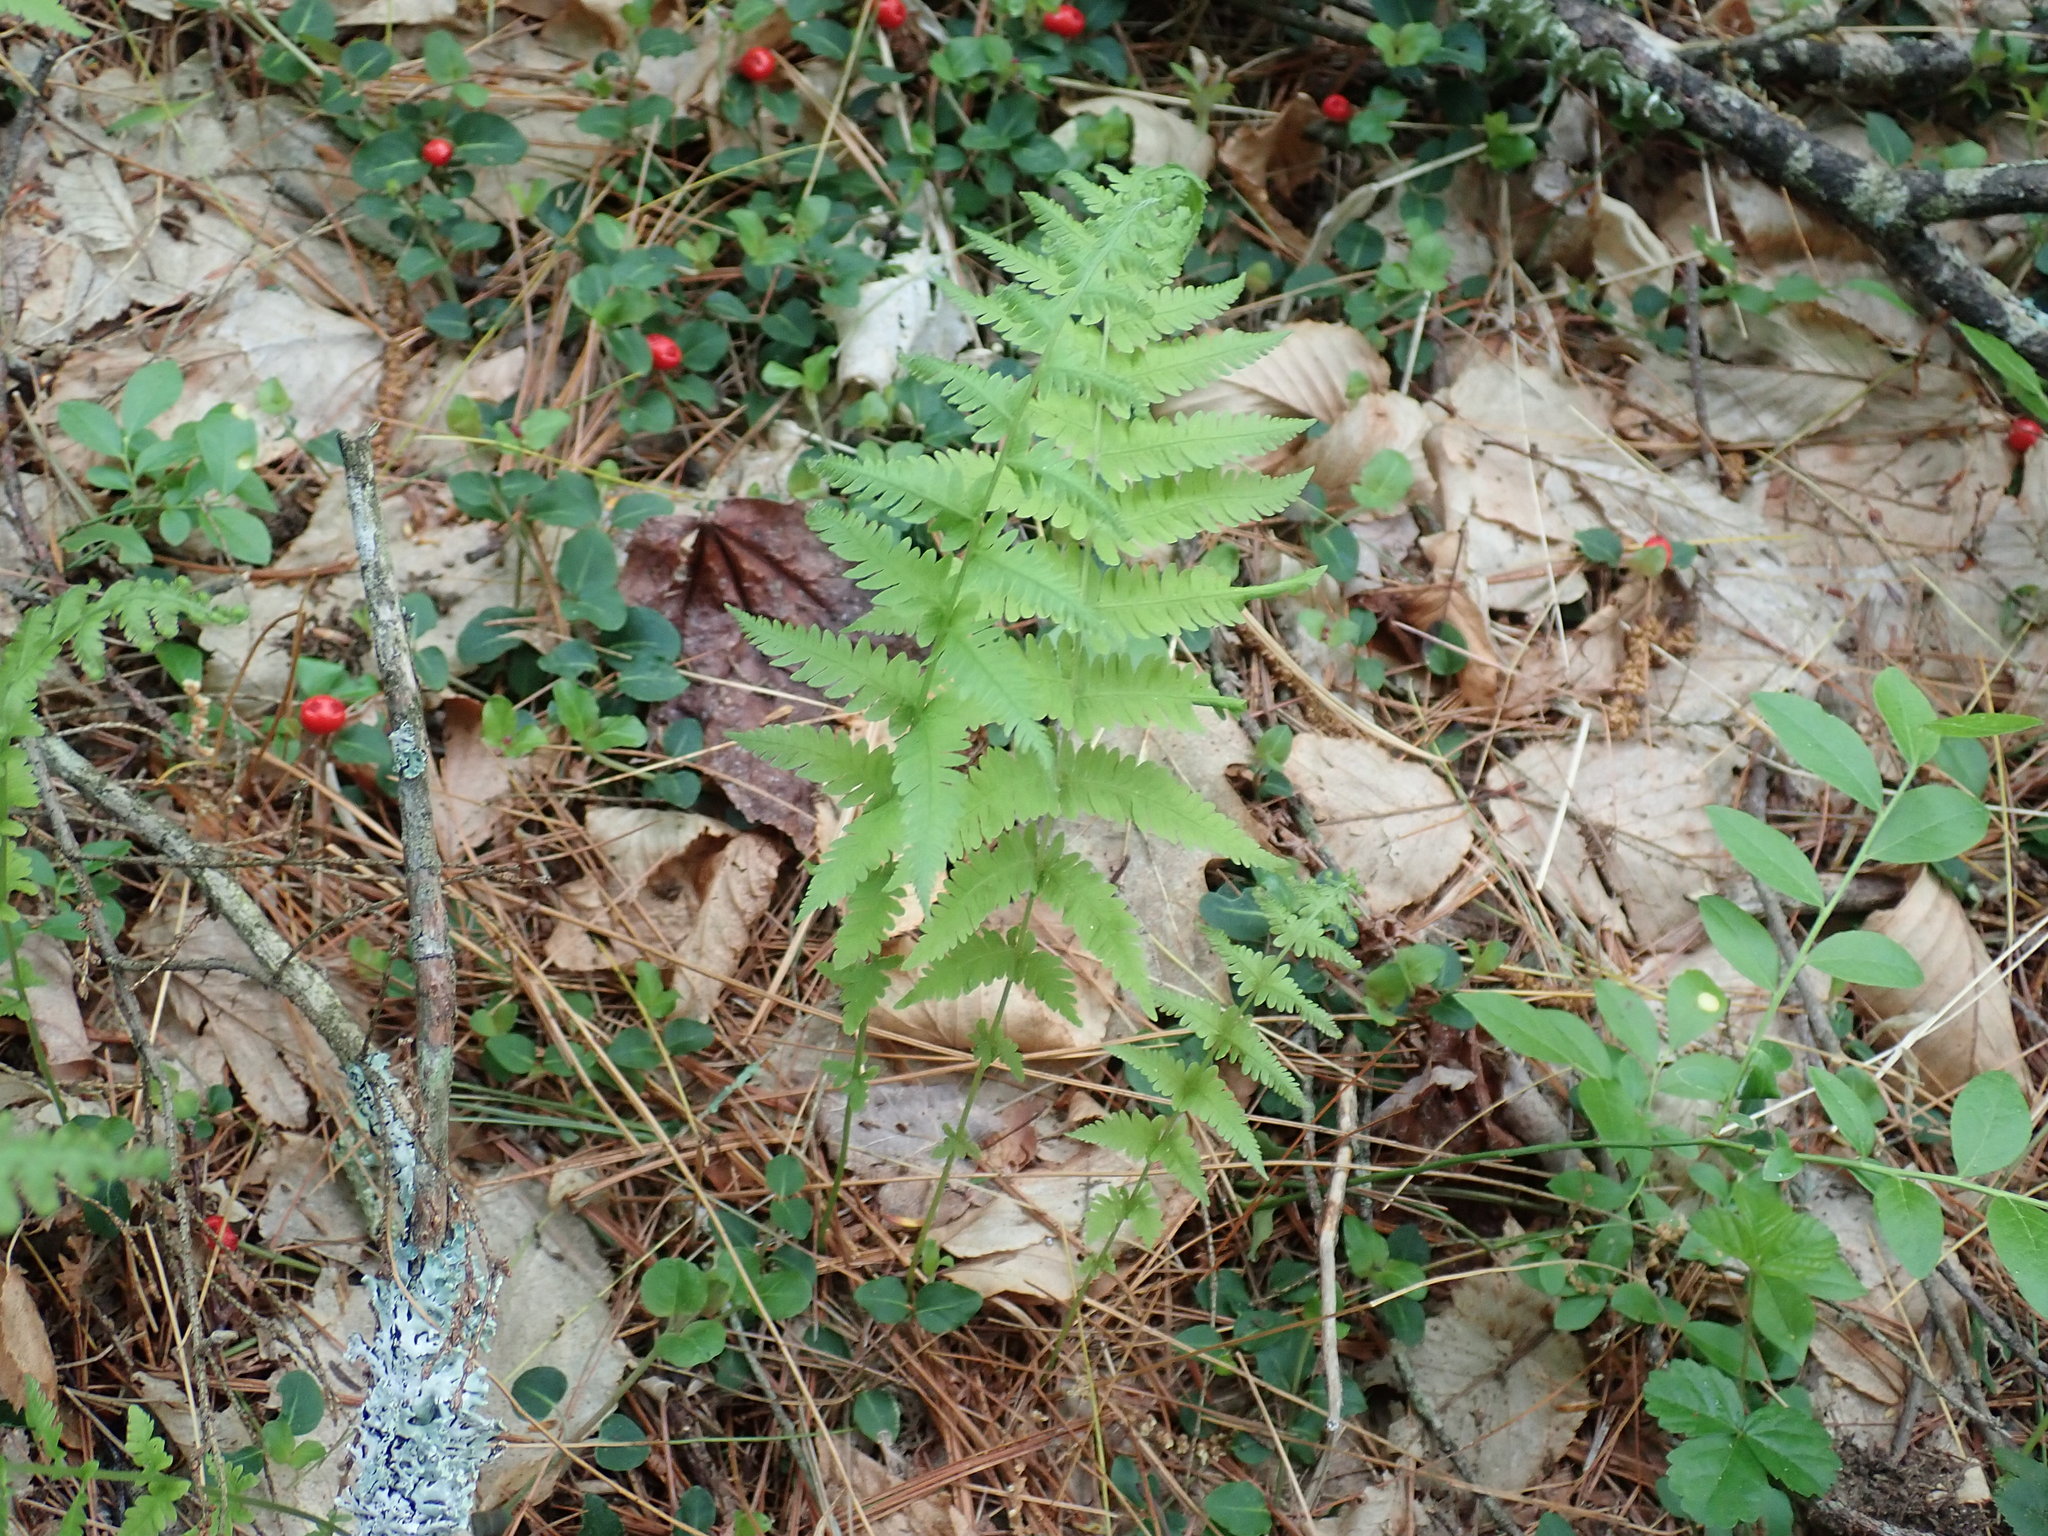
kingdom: Plantae
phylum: Tracheophyta
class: Polypodiopsida
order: Polypodiales
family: Thelypteridaceae
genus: Amauropelta
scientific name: Amauropelta noveboracensis
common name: New york fern
